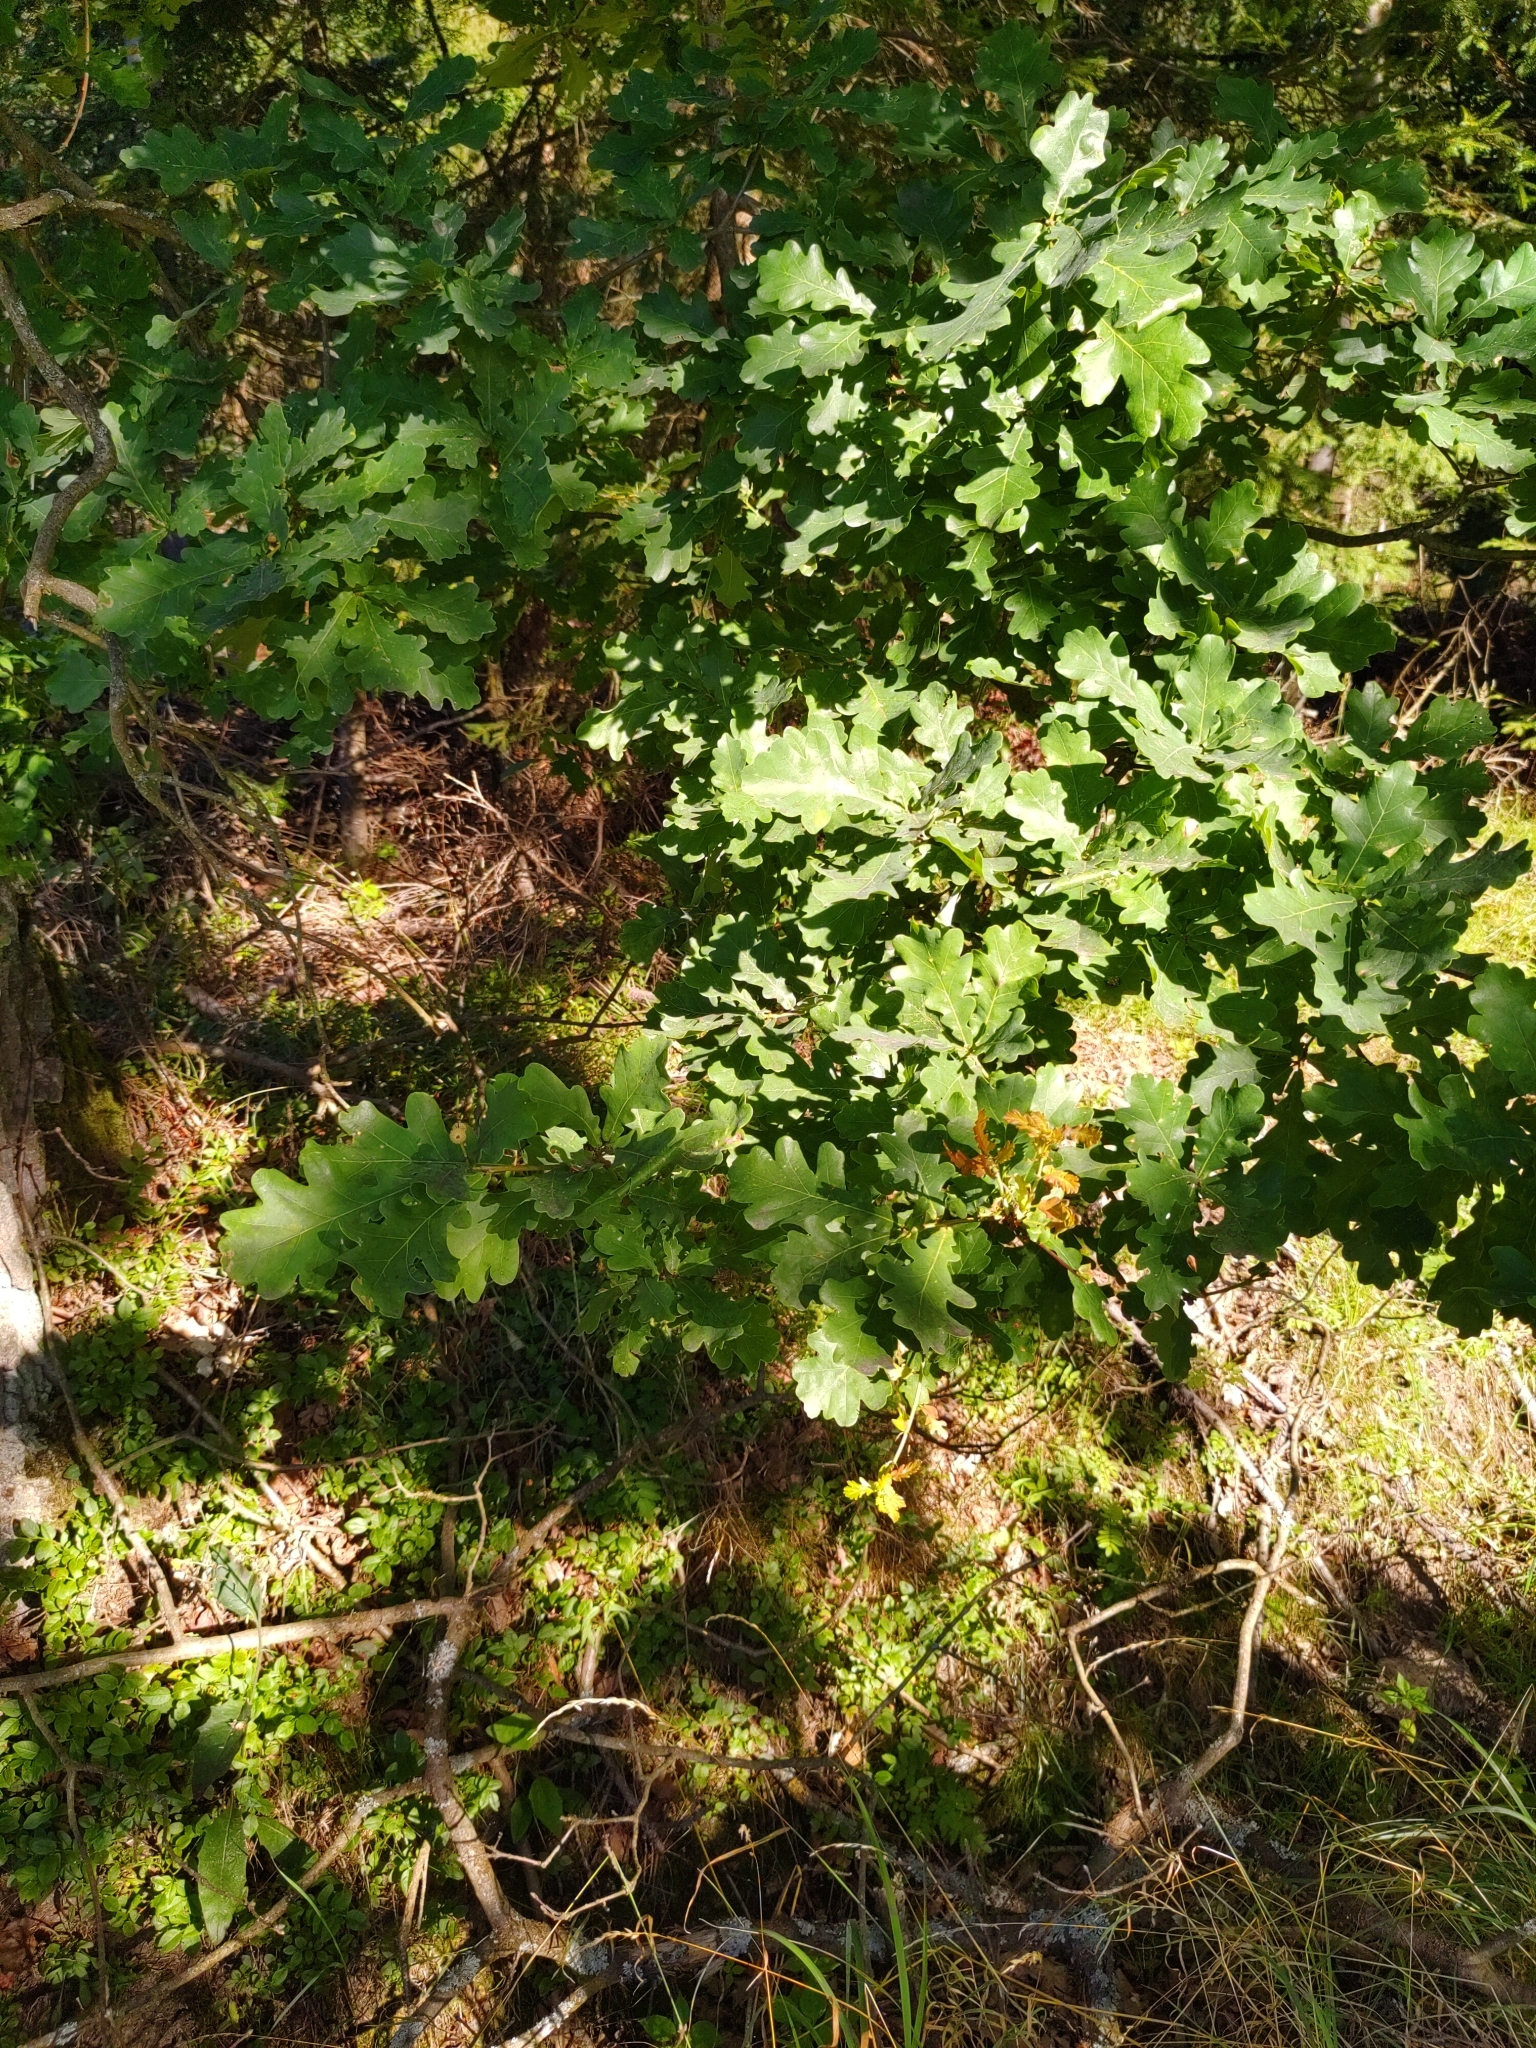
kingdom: Plantae
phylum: Tracheophyta
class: Magnoliopsida
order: Fagales
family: Fagaceae
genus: Quercus
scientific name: Quercus robur
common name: Pedunculate oak
